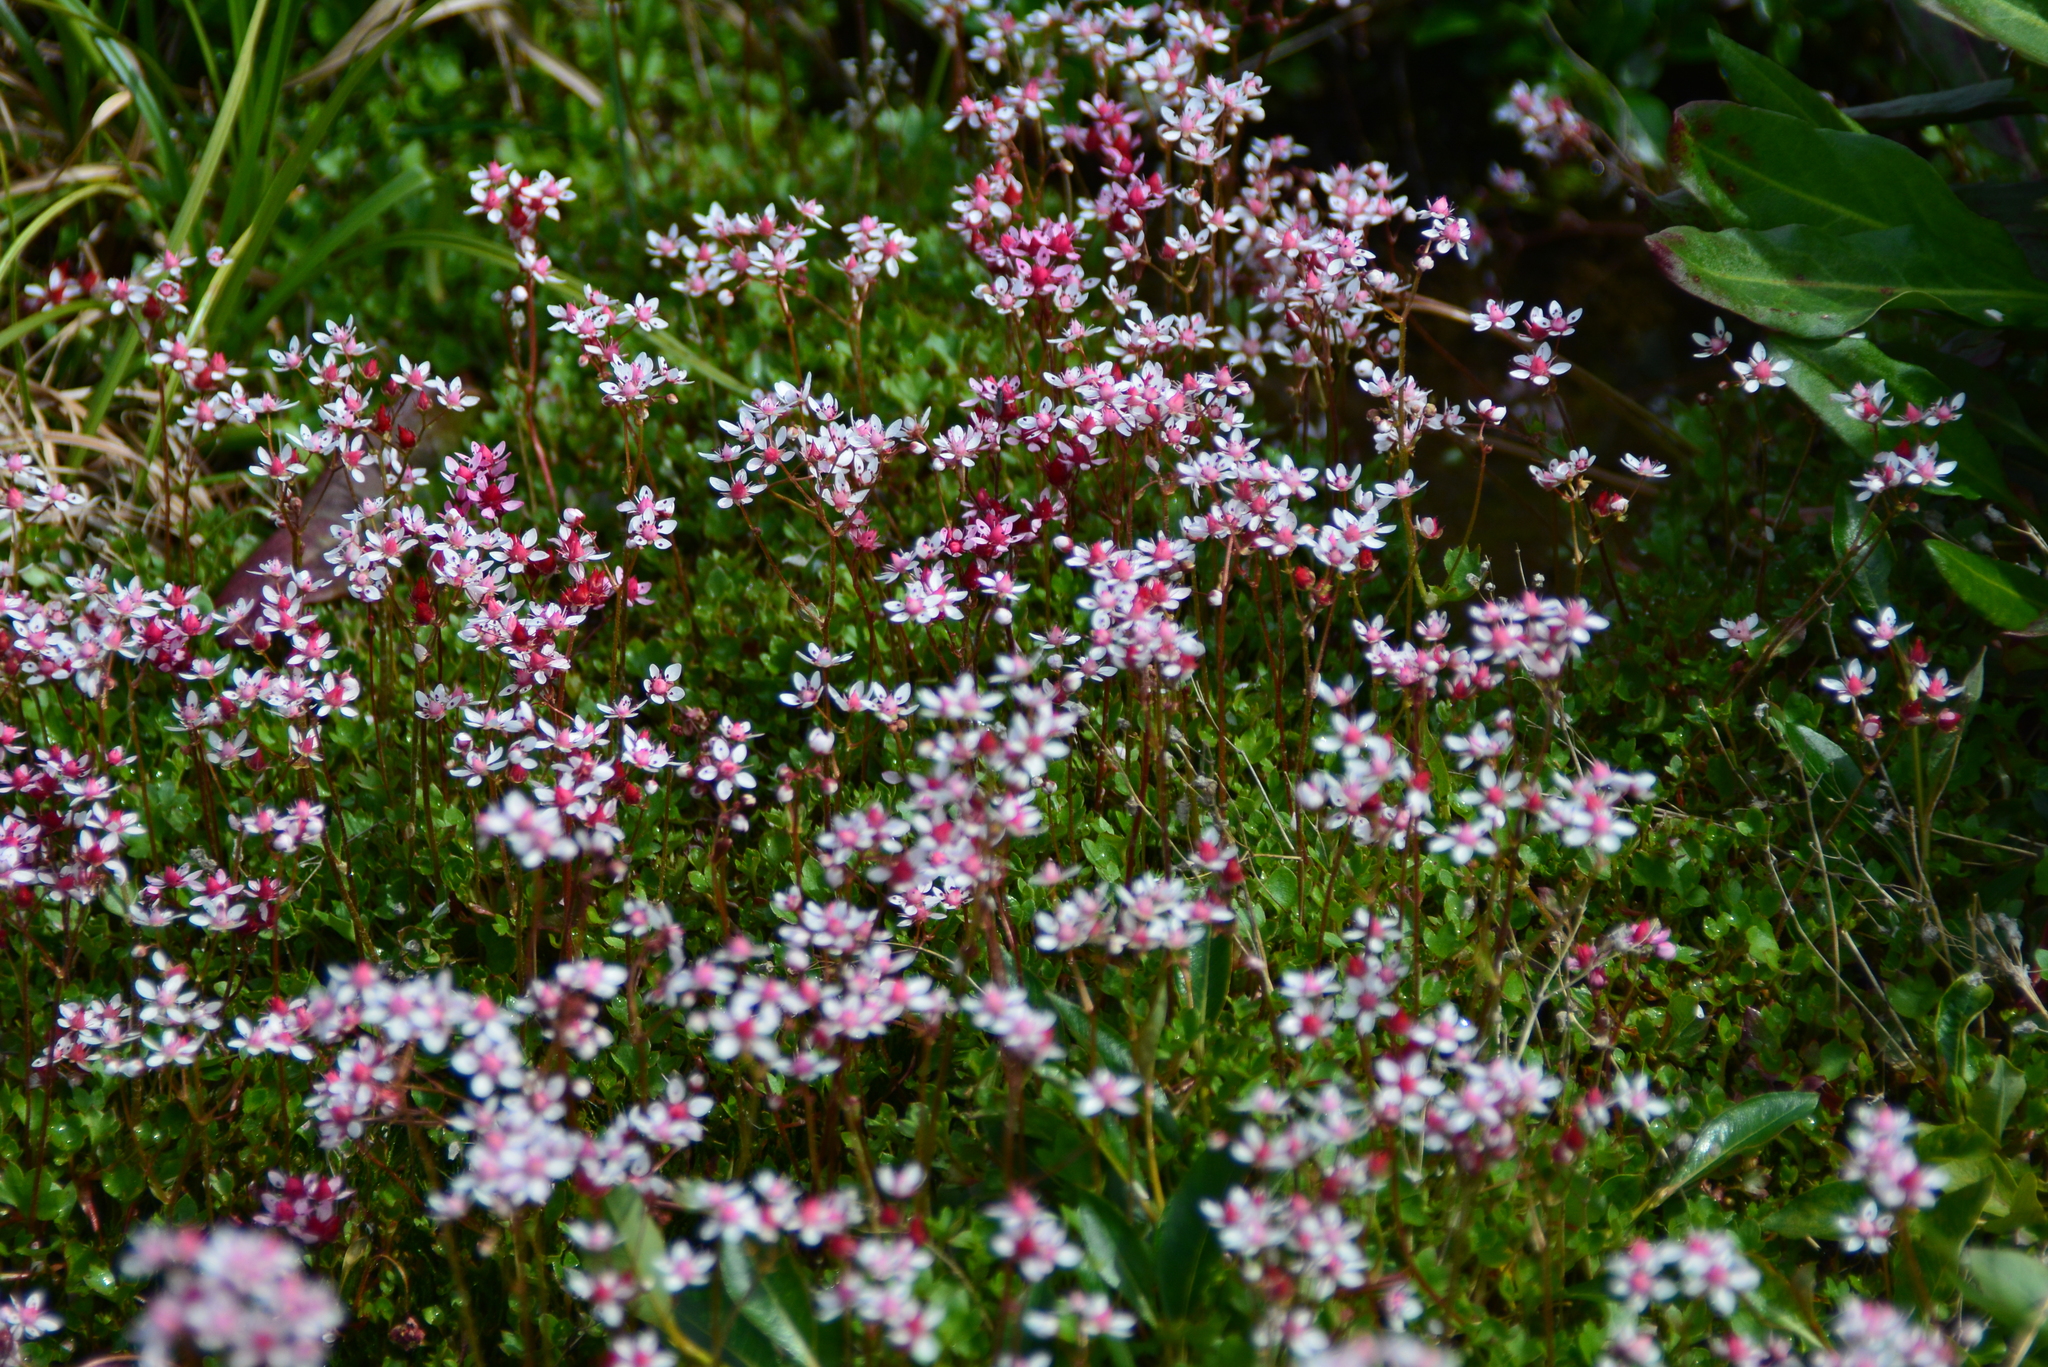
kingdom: Plantae
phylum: Tracheophyta
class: Magnoliopsida
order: Saxifragales
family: Saxifragaceae
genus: Micranthes
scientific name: Micranthes nudicaulis
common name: Nakedstem saxifrage
